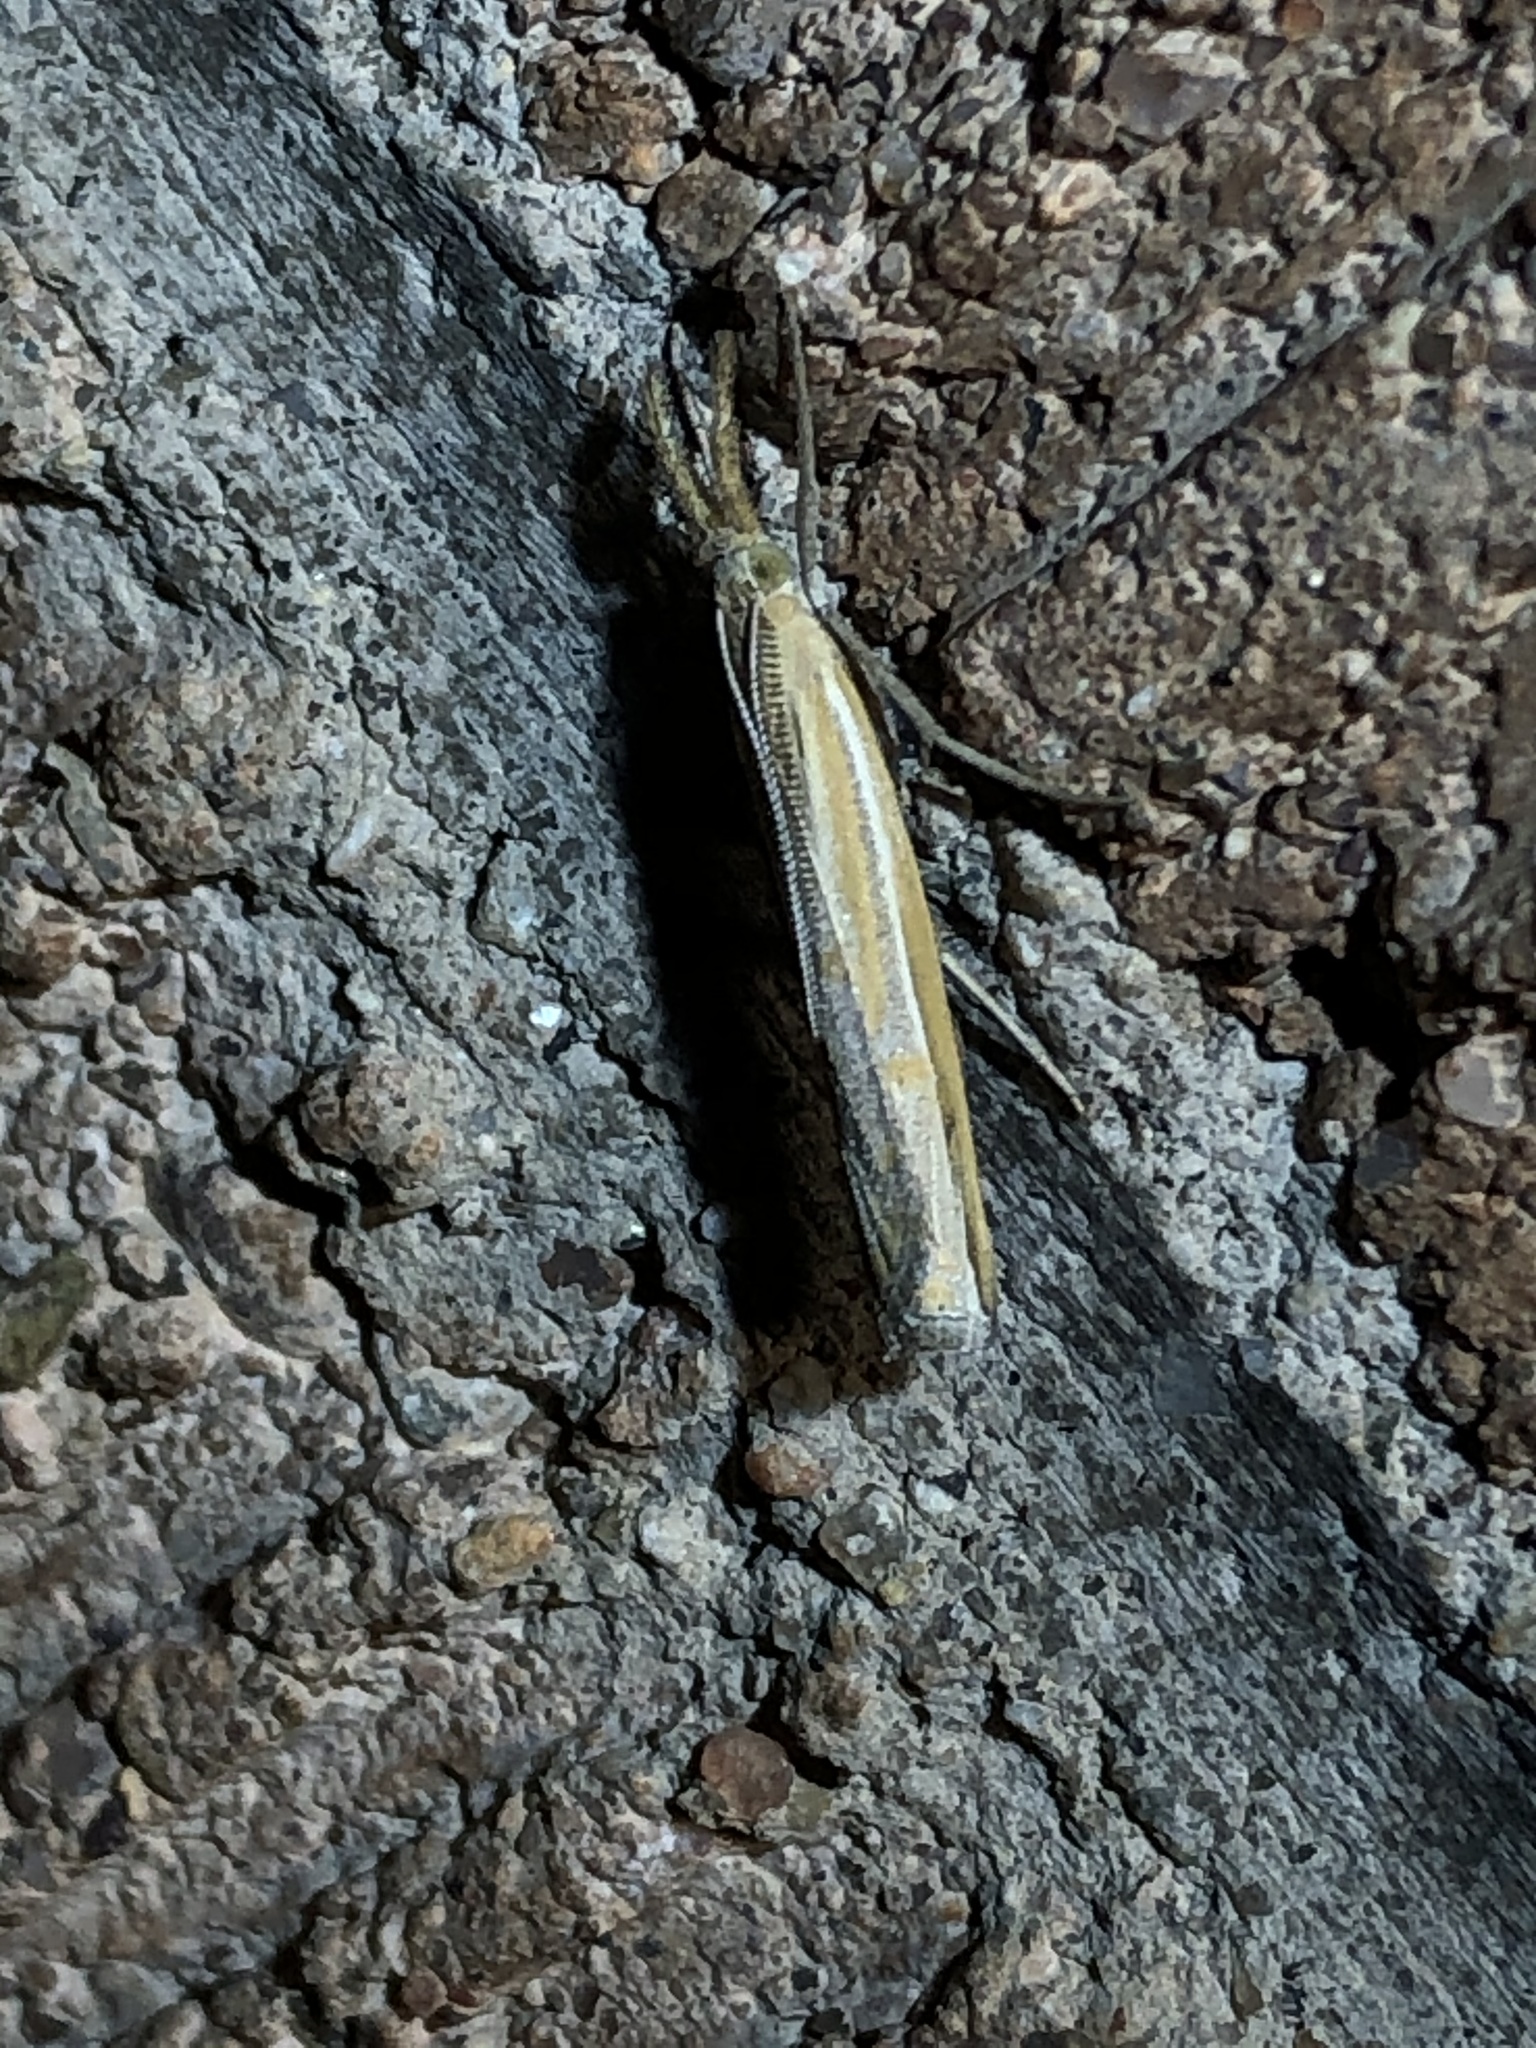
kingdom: Animalia
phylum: Arthropoda
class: Insecta
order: Lepidoptera
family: Crambidae
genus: Thaumatopsis
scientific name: Thaumatopsis atomosella
